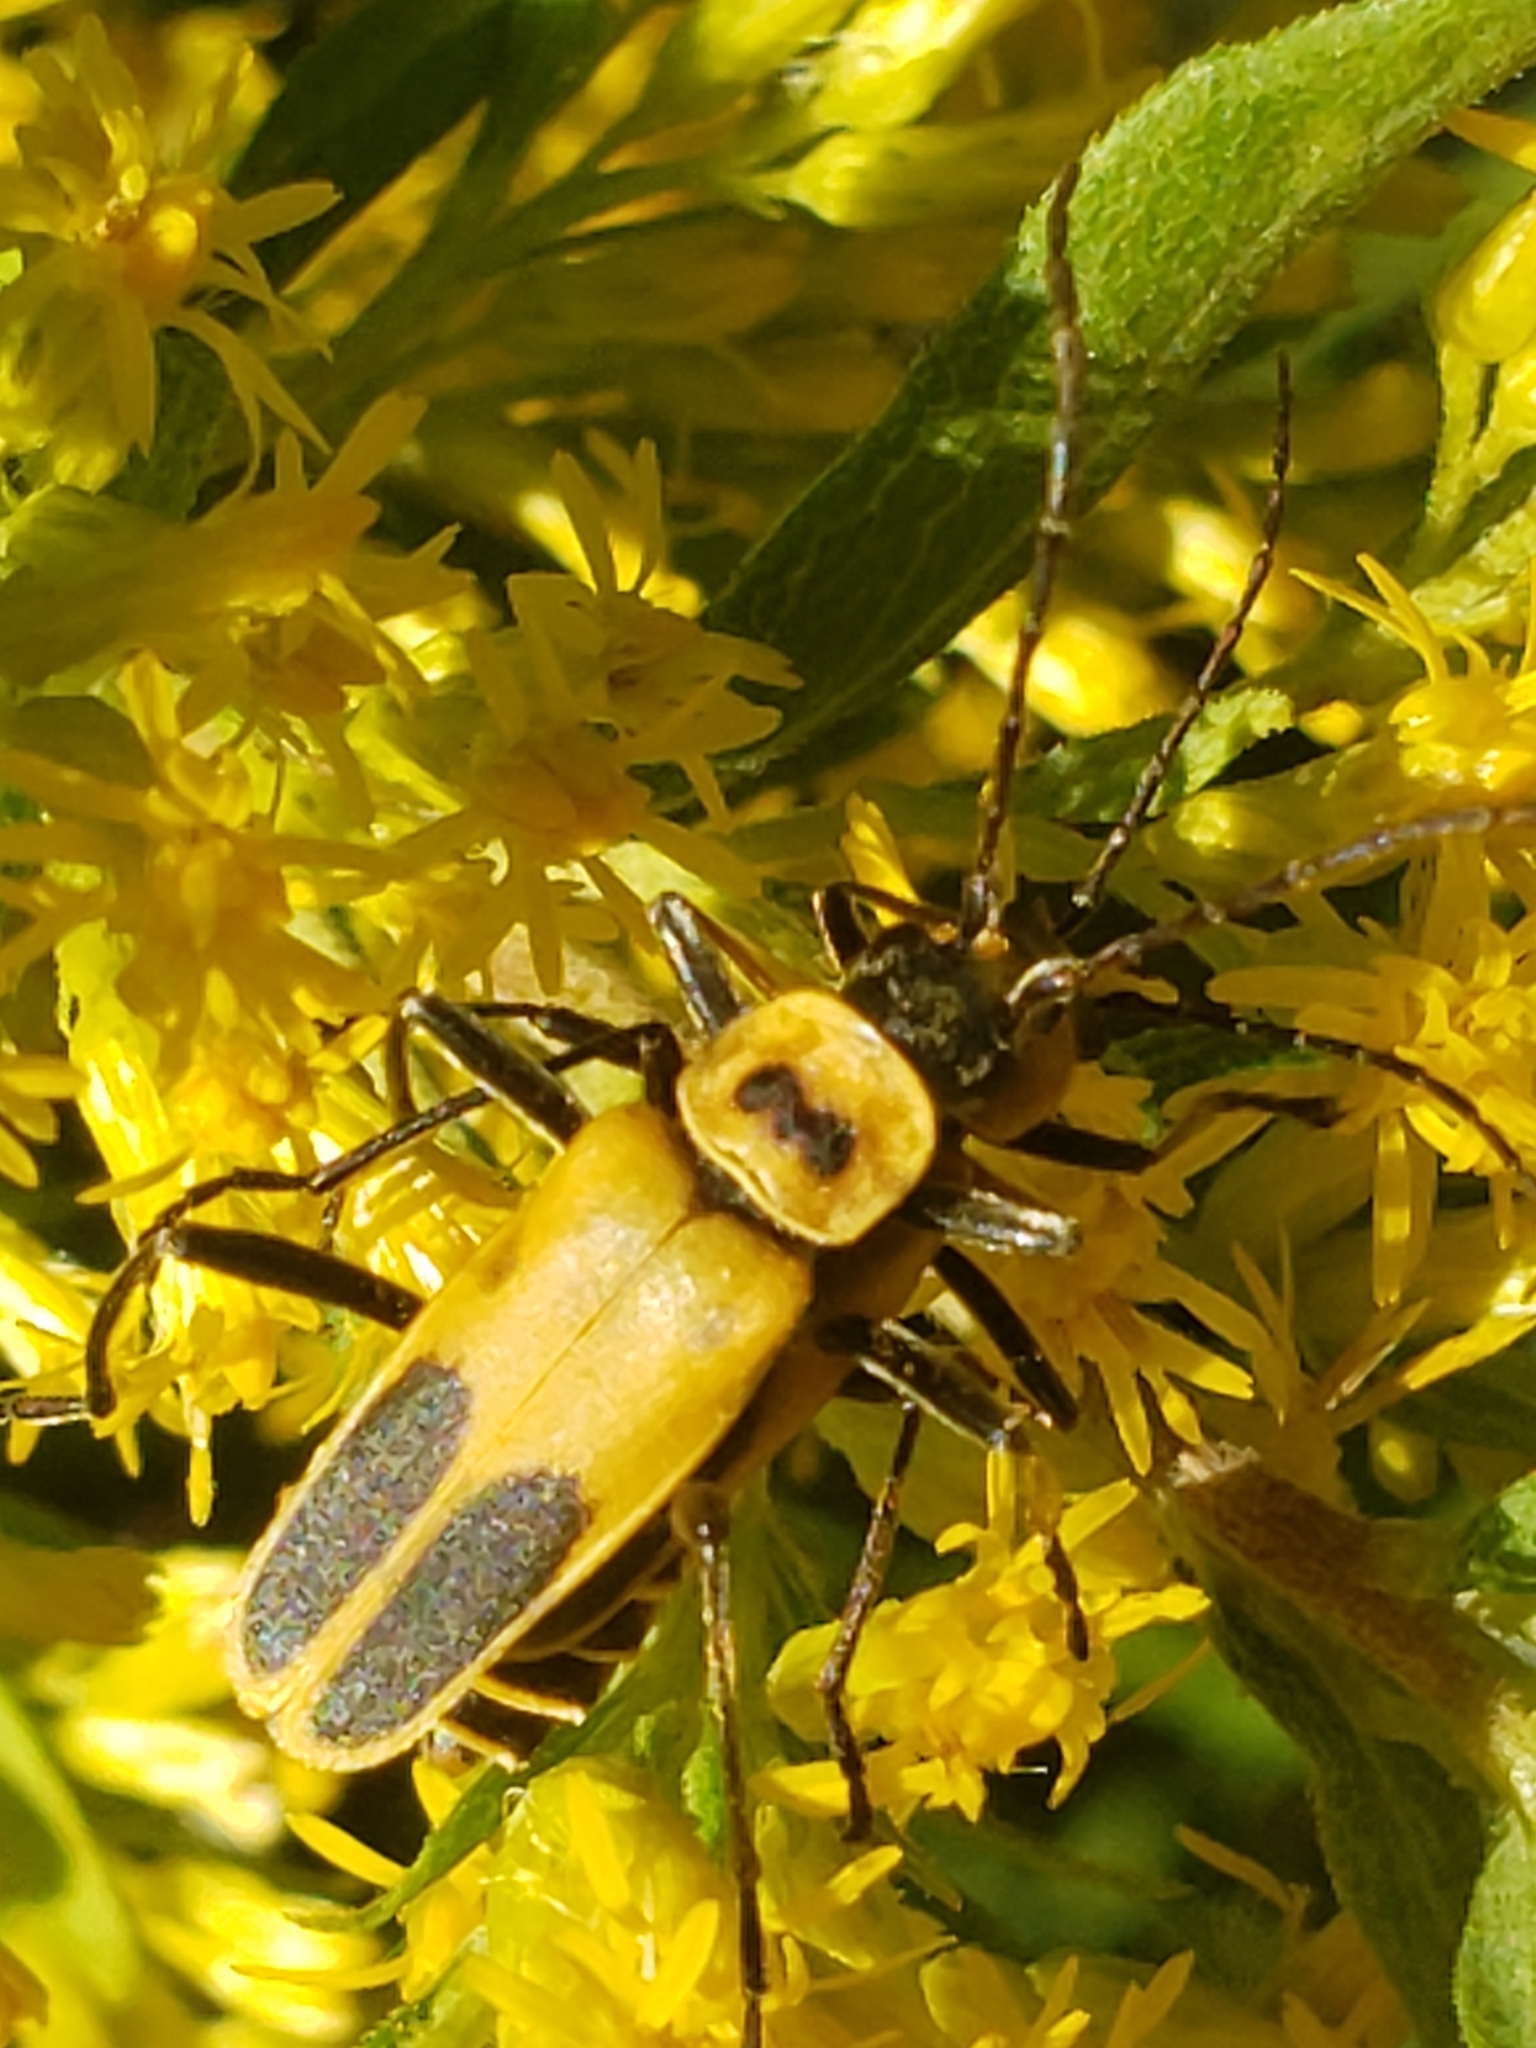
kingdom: Animalia
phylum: Arthropoda
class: Insecta
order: Coleoptera
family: Cantharidae
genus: Chauliognathus
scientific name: Chauliognathus pensylvanicus
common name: Goldenrod soldier beetle
